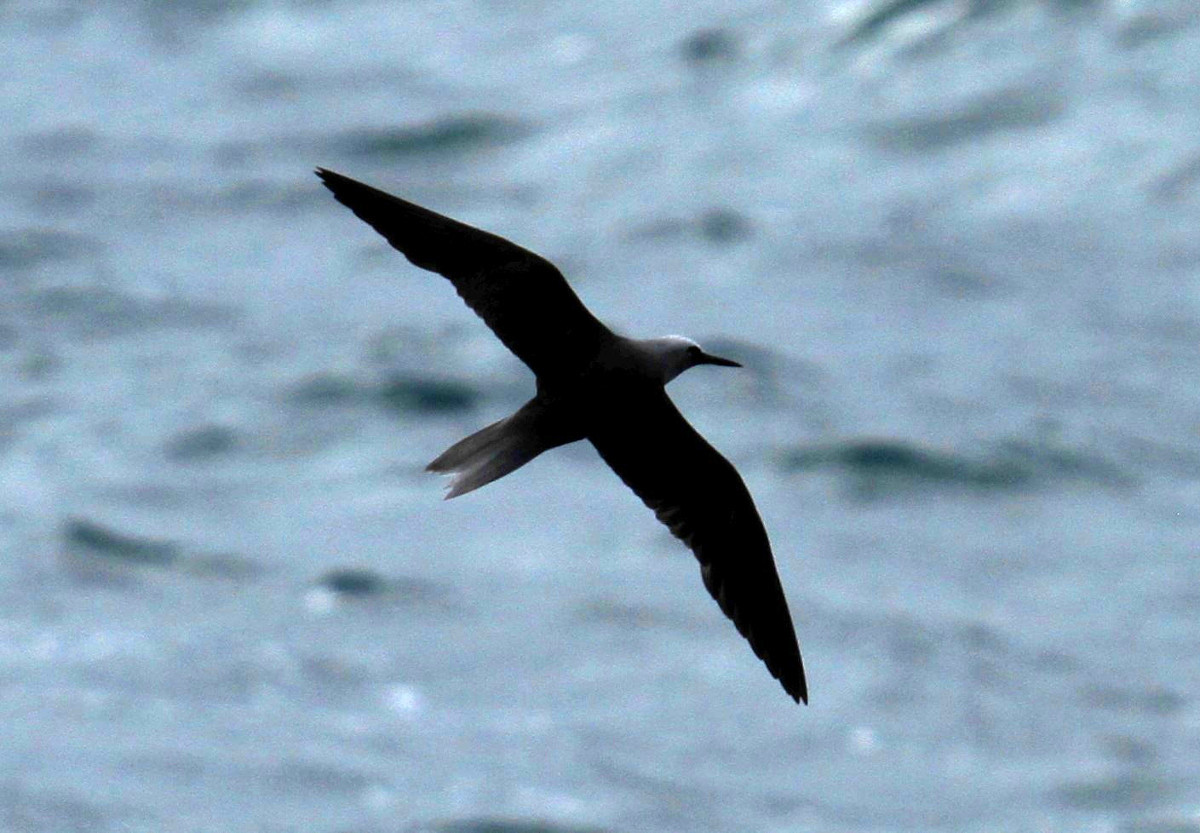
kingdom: Animalia
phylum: Chordata
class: Aves
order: Charadriiformes
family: Laridae
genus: Anous
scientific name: Anous minutus
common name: Black noddy
